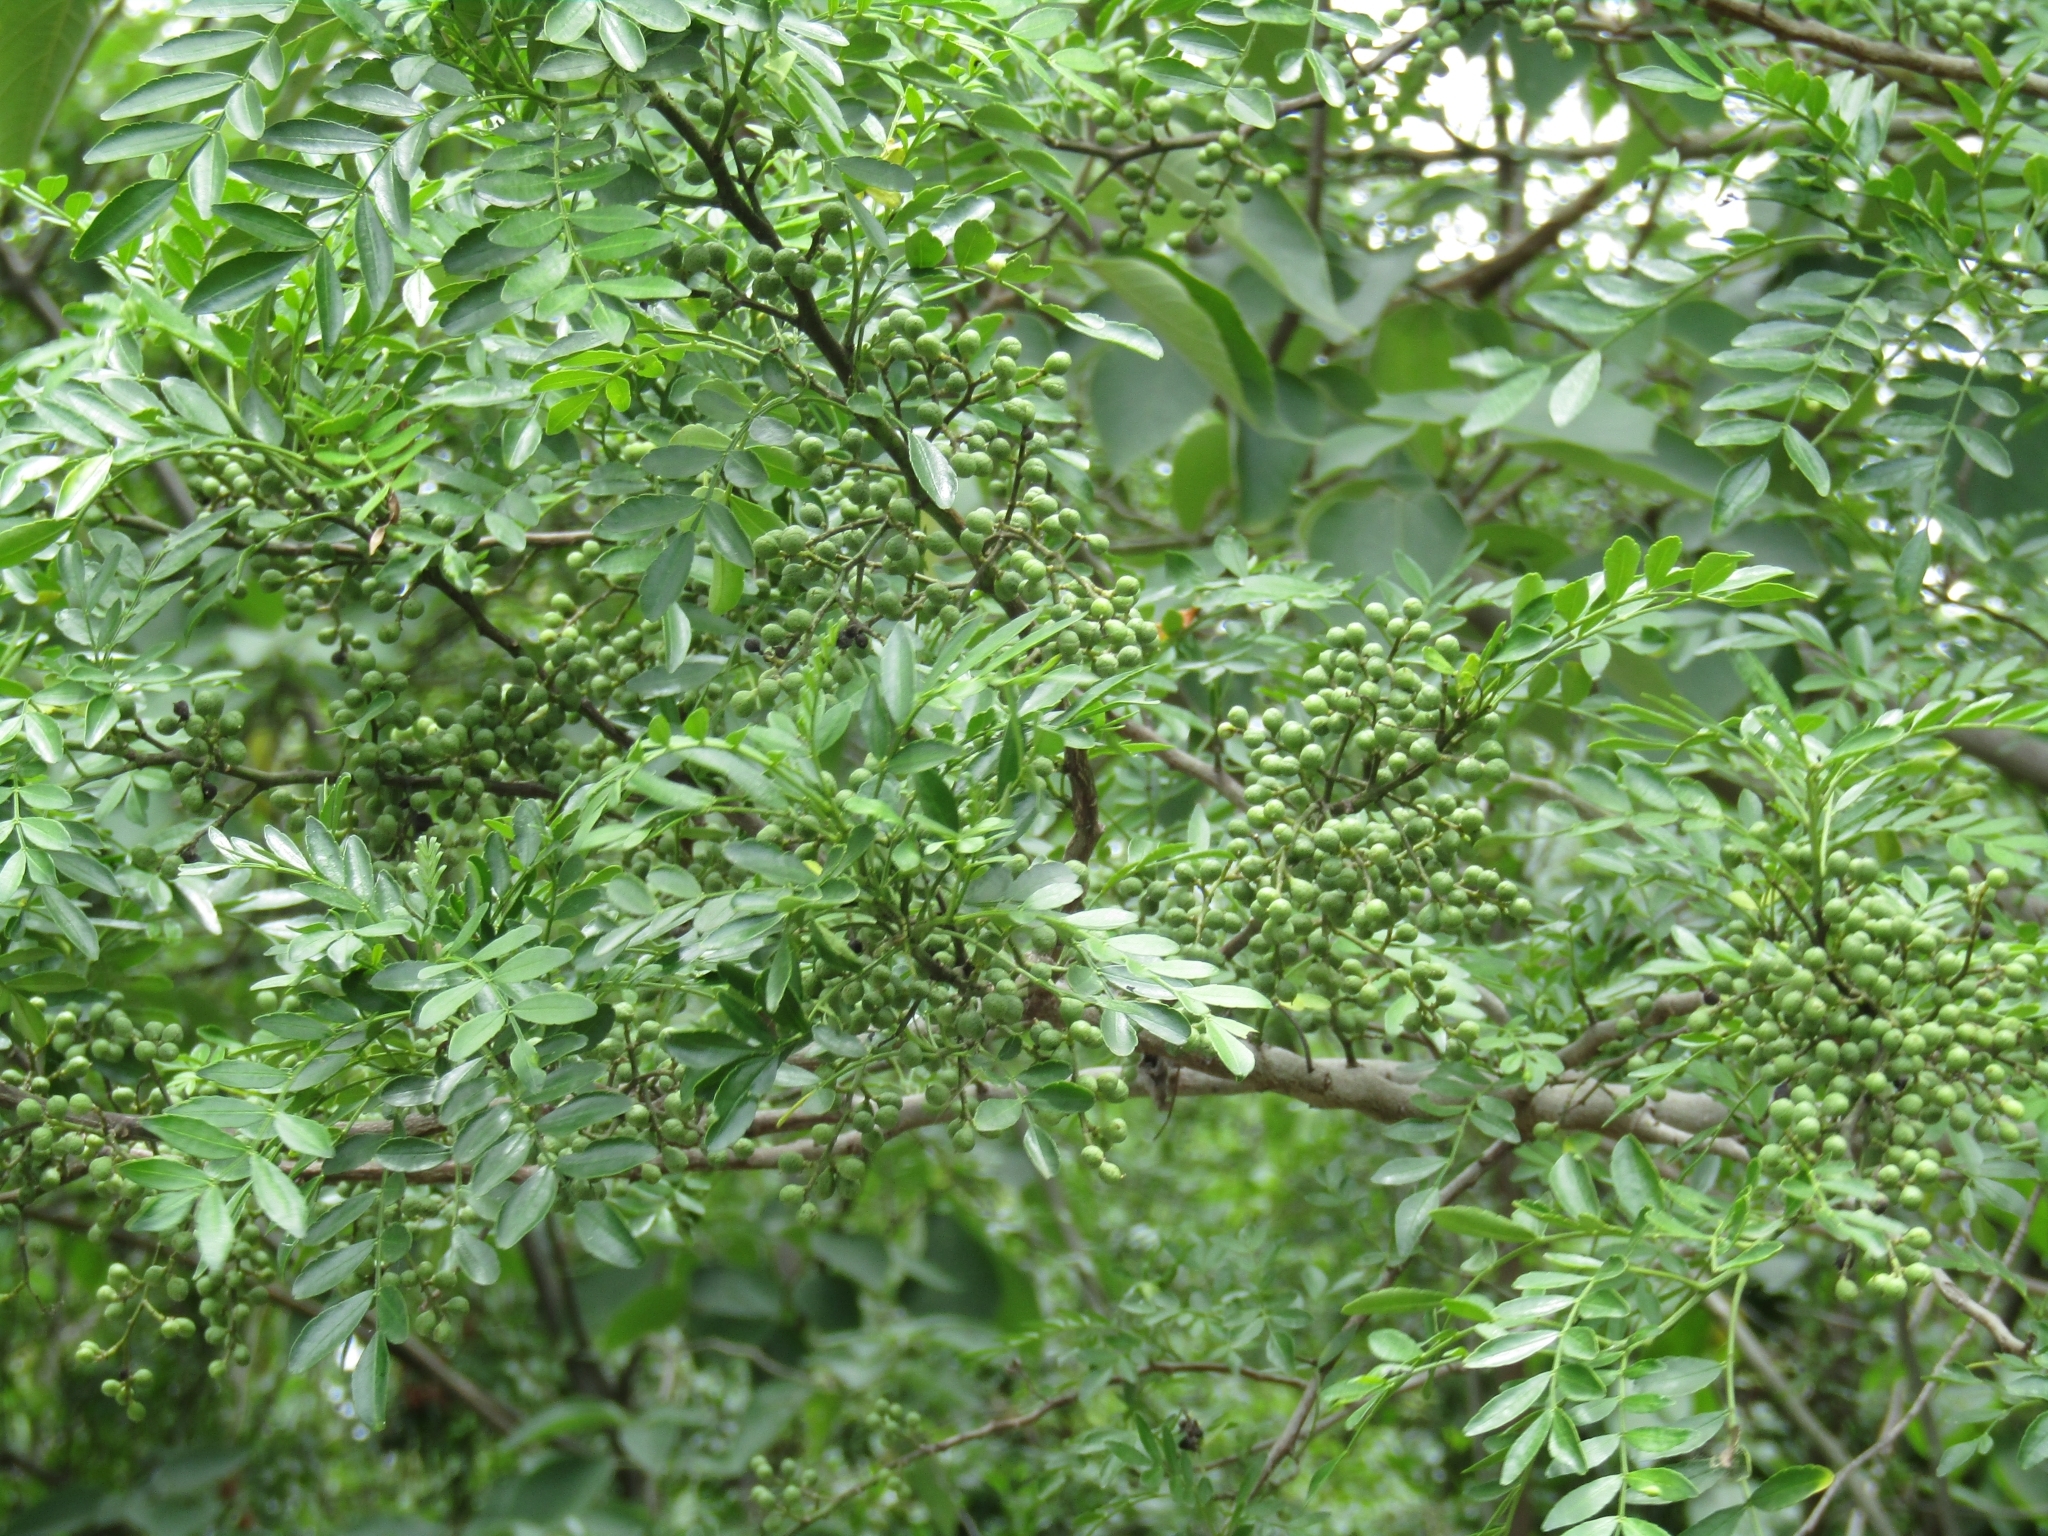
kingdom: Plantae
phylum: Tracheophyta
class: Magnoliopsida
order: Sapindales
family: Rutaceae
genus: Zanthoxylum
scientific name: Zanthoxylum fagara
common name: Lime prickly-ash
